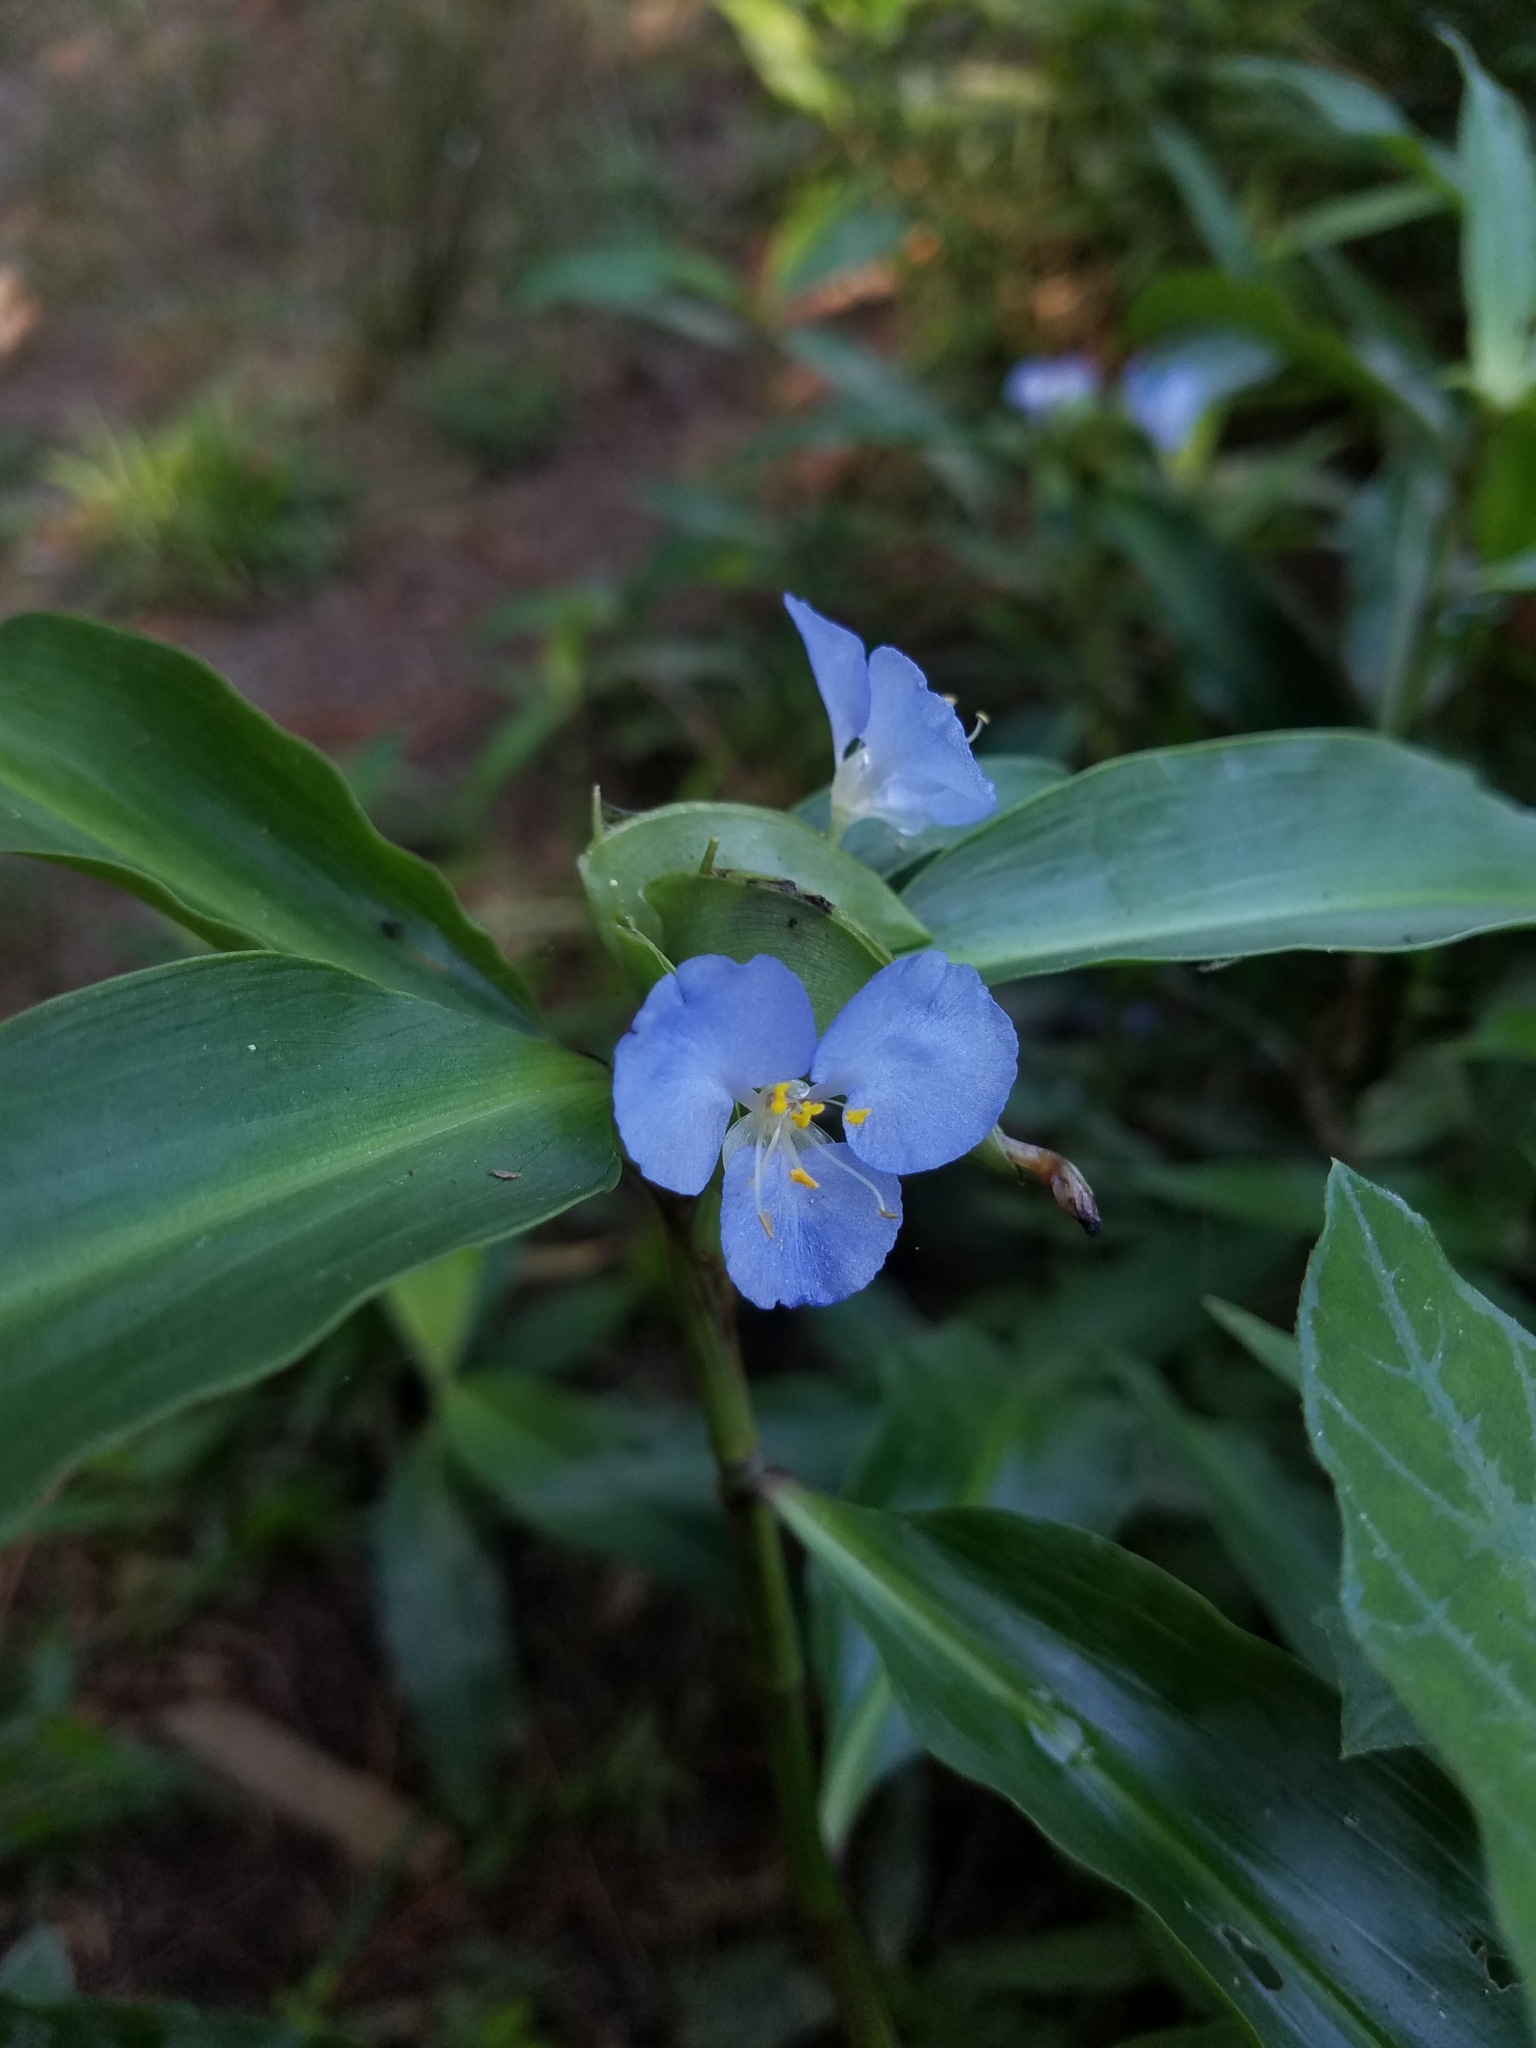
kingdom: Plantae
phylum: Tracheophyta
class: Liliopsida
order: Commelinales
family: Commelinaceae
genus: Commelina
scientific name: Commelina virginica
